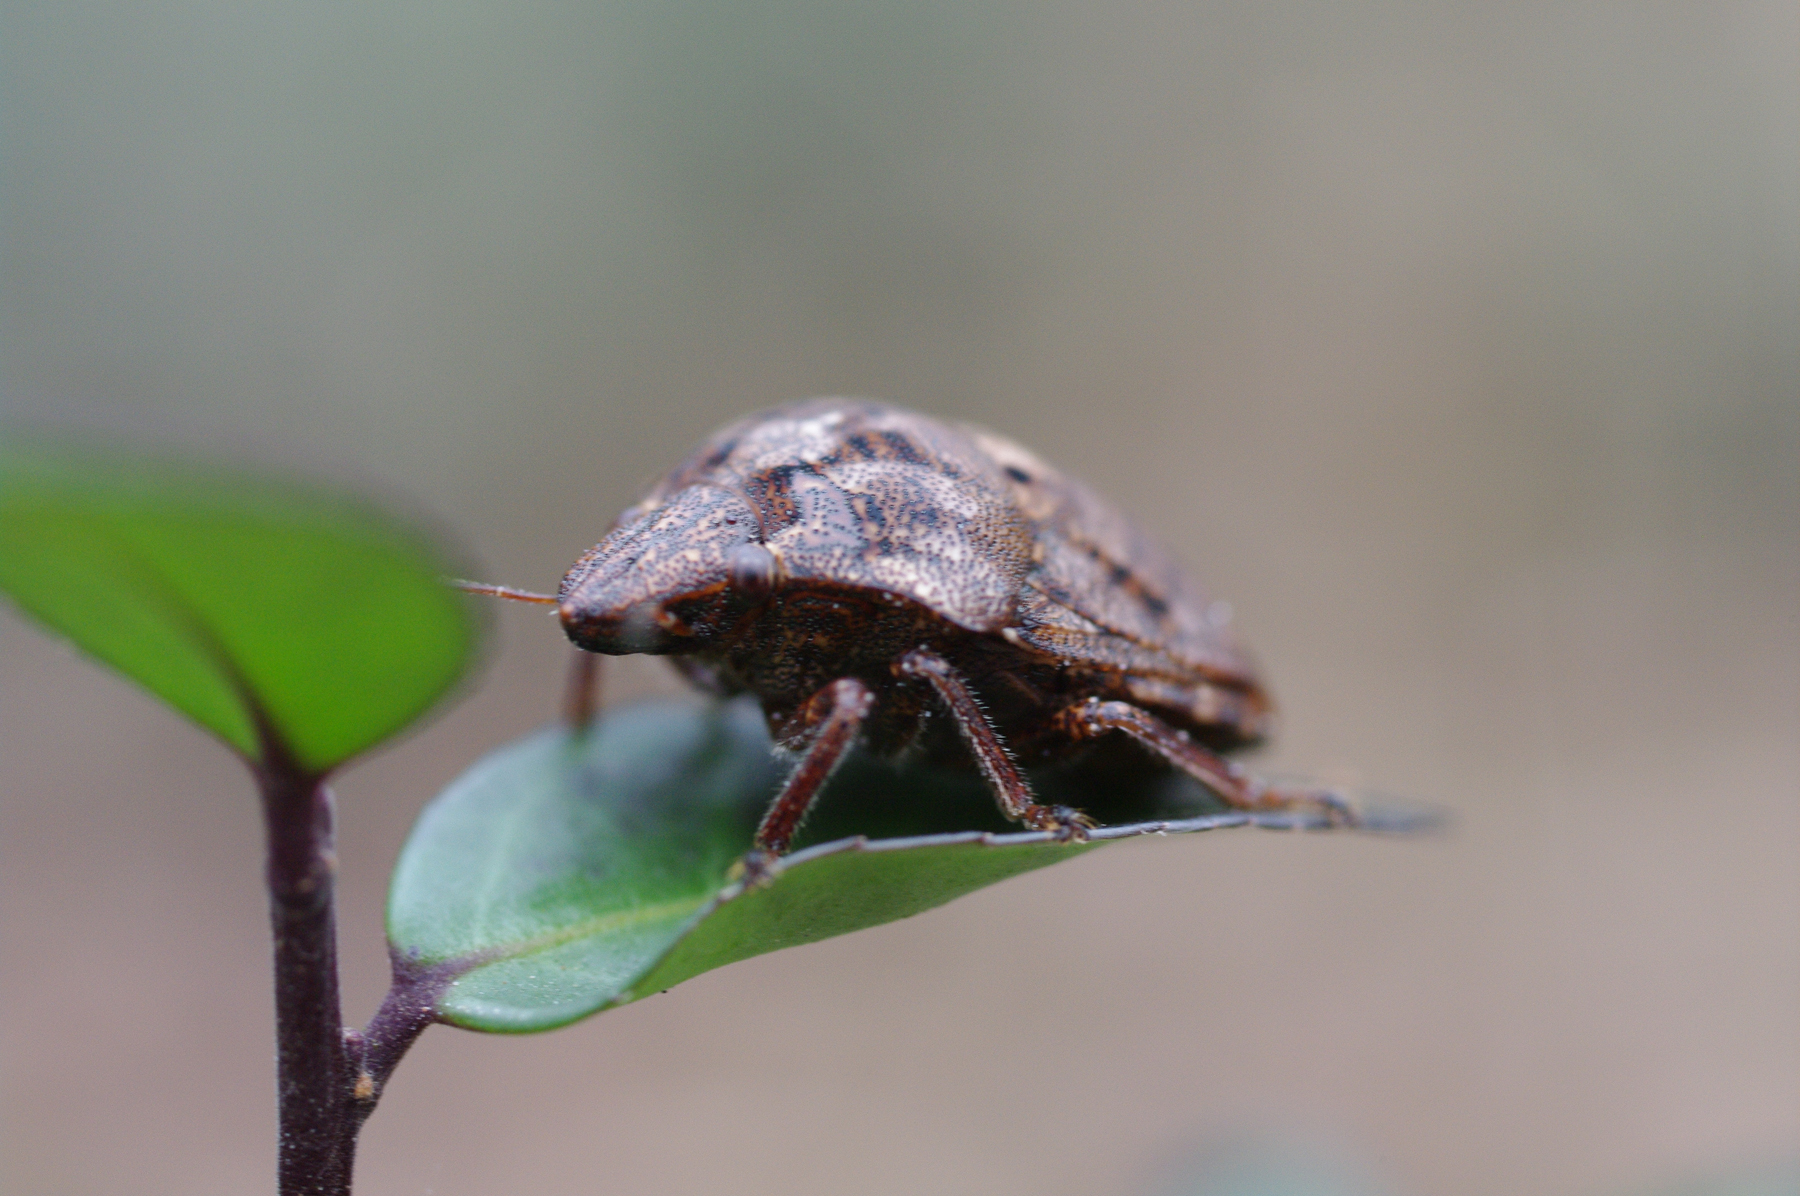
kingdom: Animalia
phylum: Arthropoda
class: Insecta
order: Hemiptera
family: Scutelleridae
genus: Tetyra
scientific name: Tetyra bipunctata
